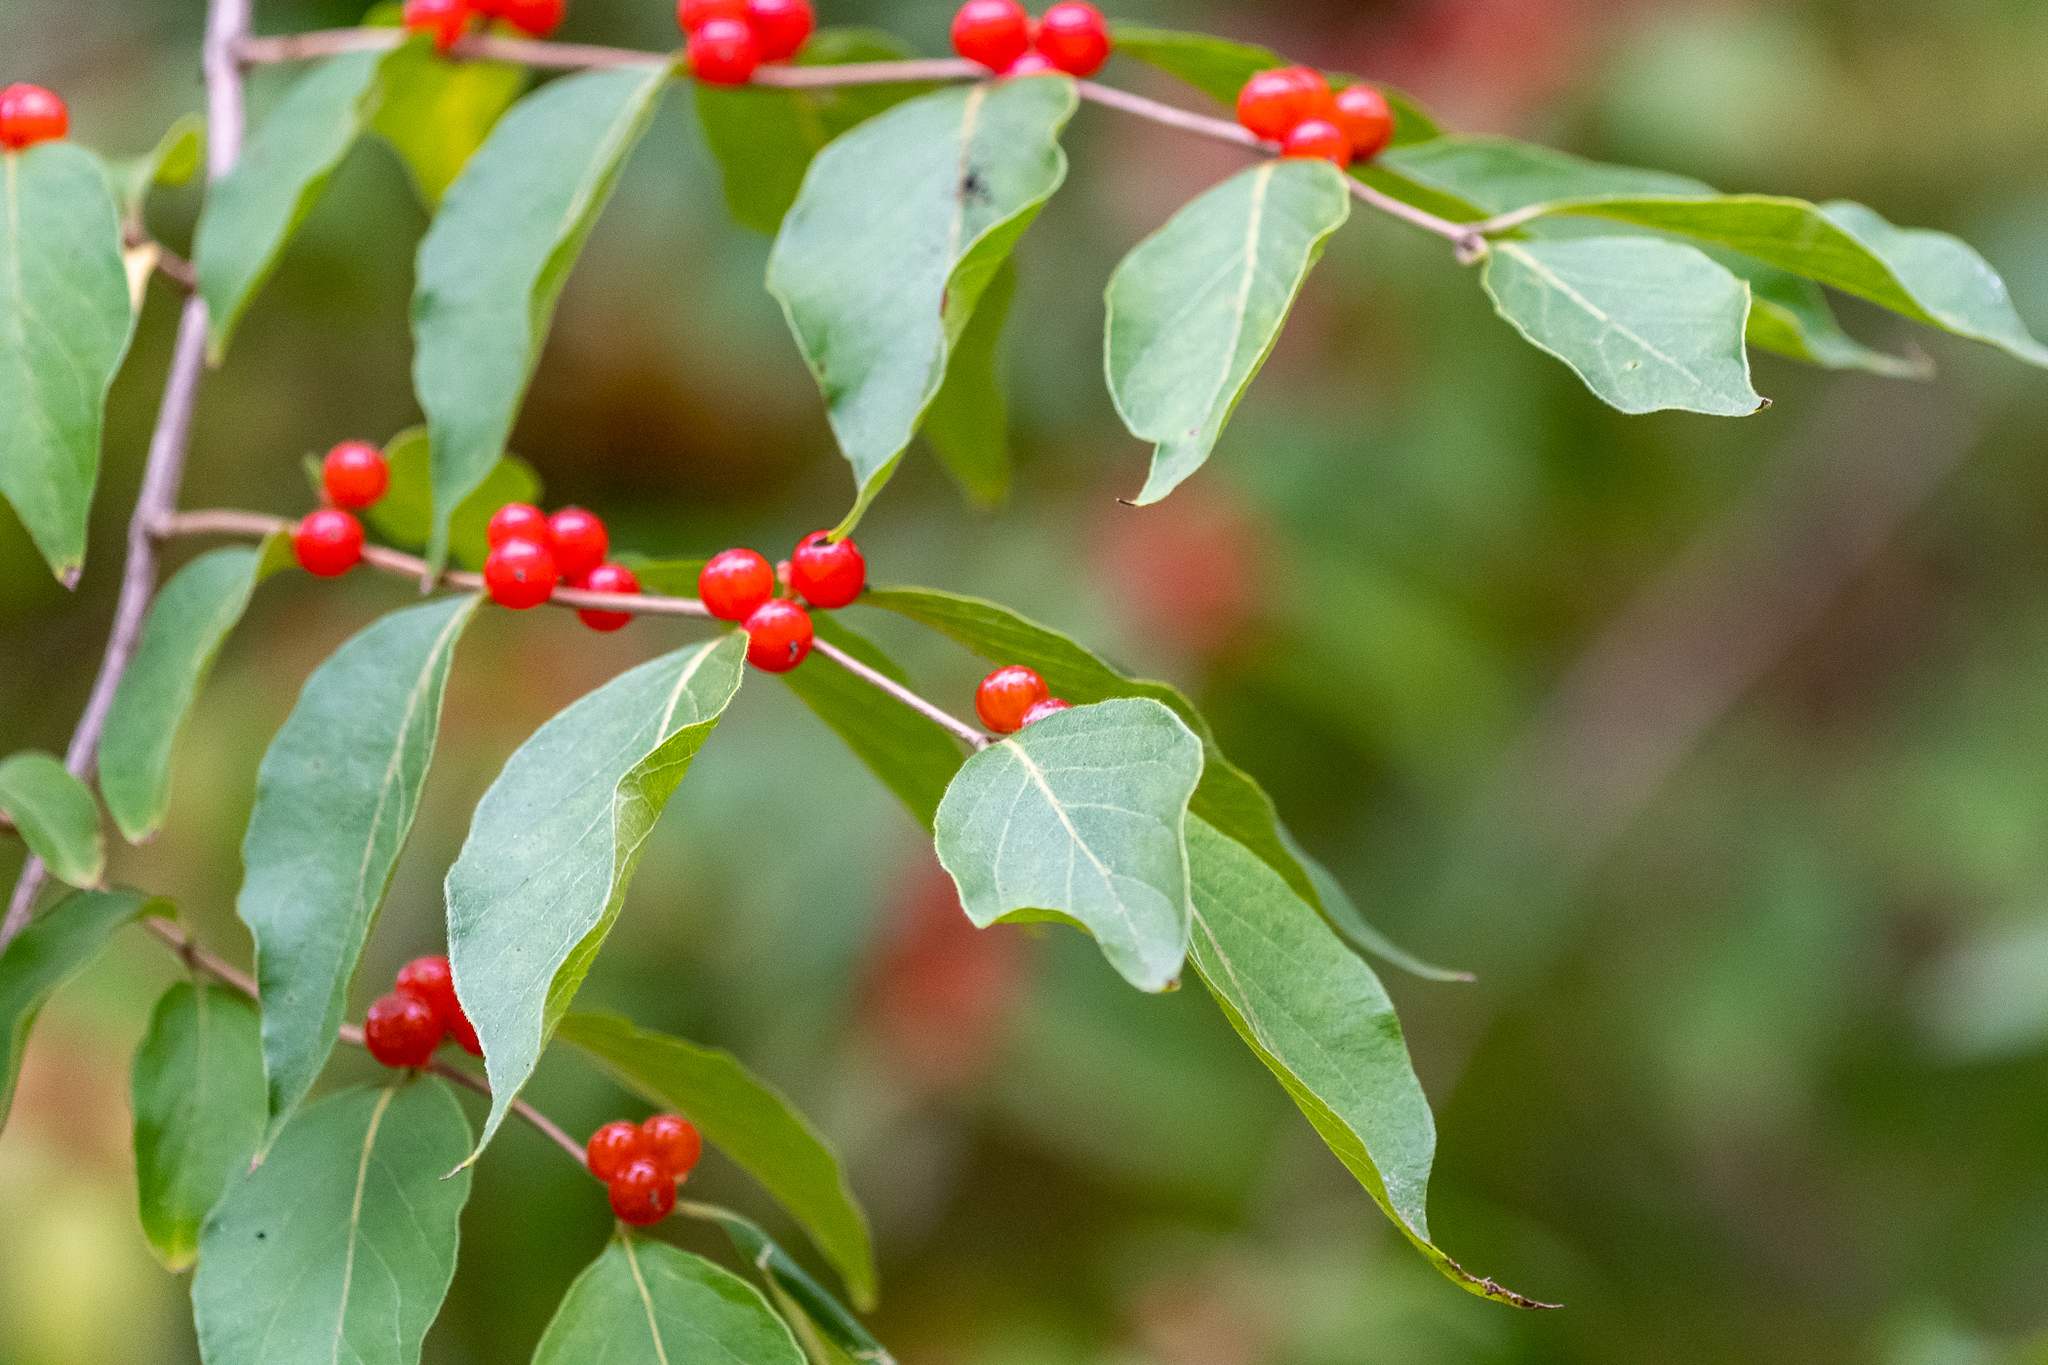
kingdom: Plantae
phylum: Tracheophyta
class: Magnoliopsida
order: Dipsacales
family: Caprifoliaceae
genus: Lonicera
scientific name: Lonicera maackii
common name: Amur honeysuckle
